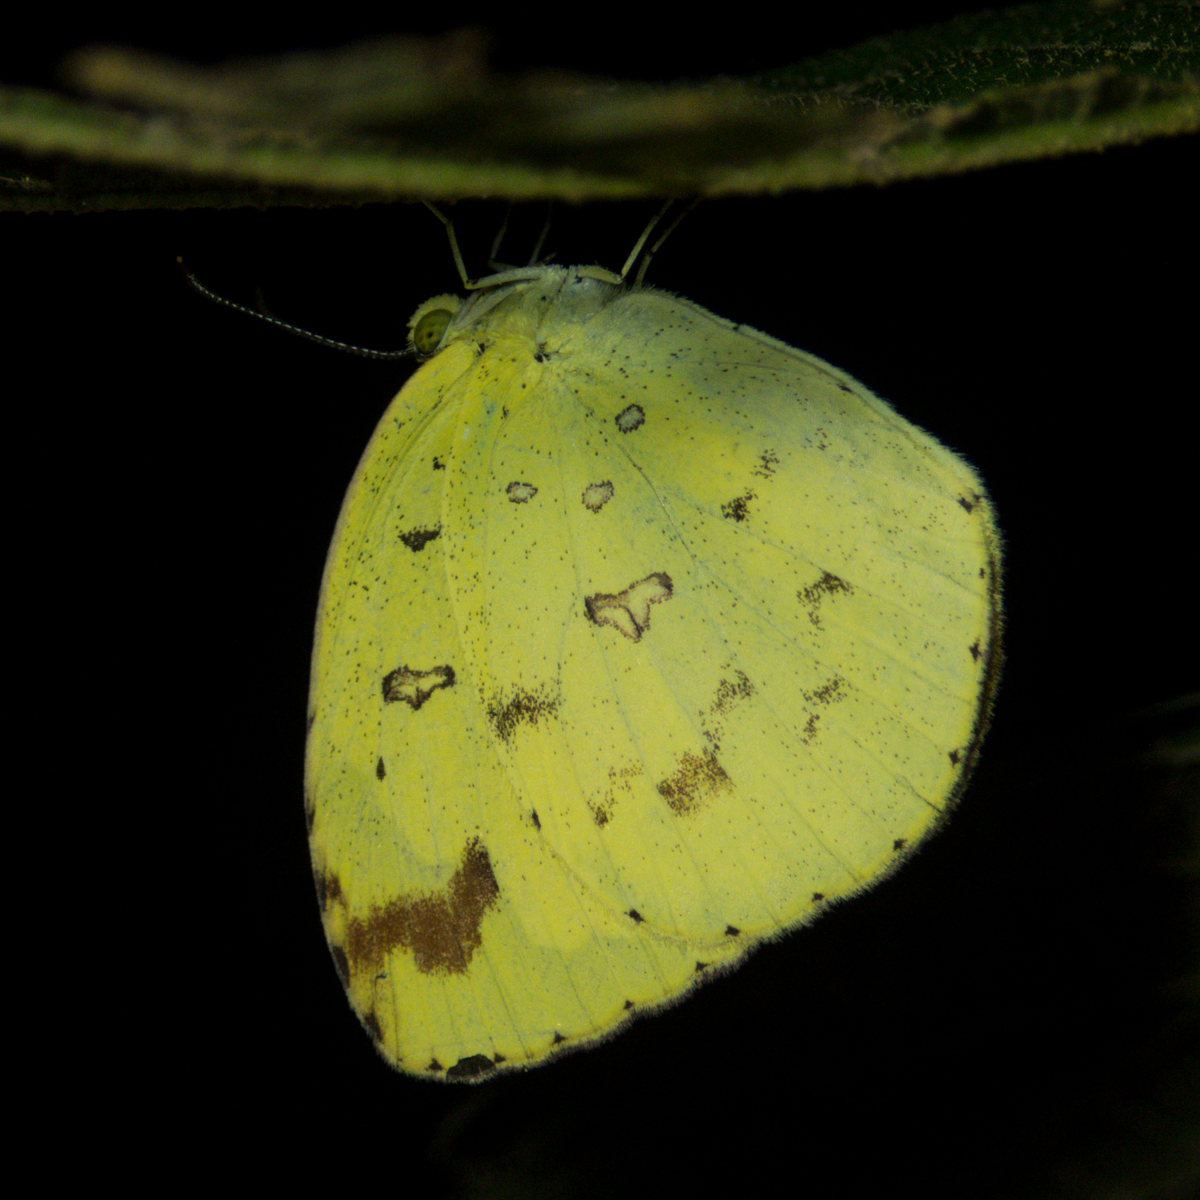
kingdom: Animalia
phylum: Arthropoda
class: Insecta
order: Lepidoptera
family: Pieridae
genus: Eurema
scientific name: Eurema hecabe
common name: Pale grass yellow
